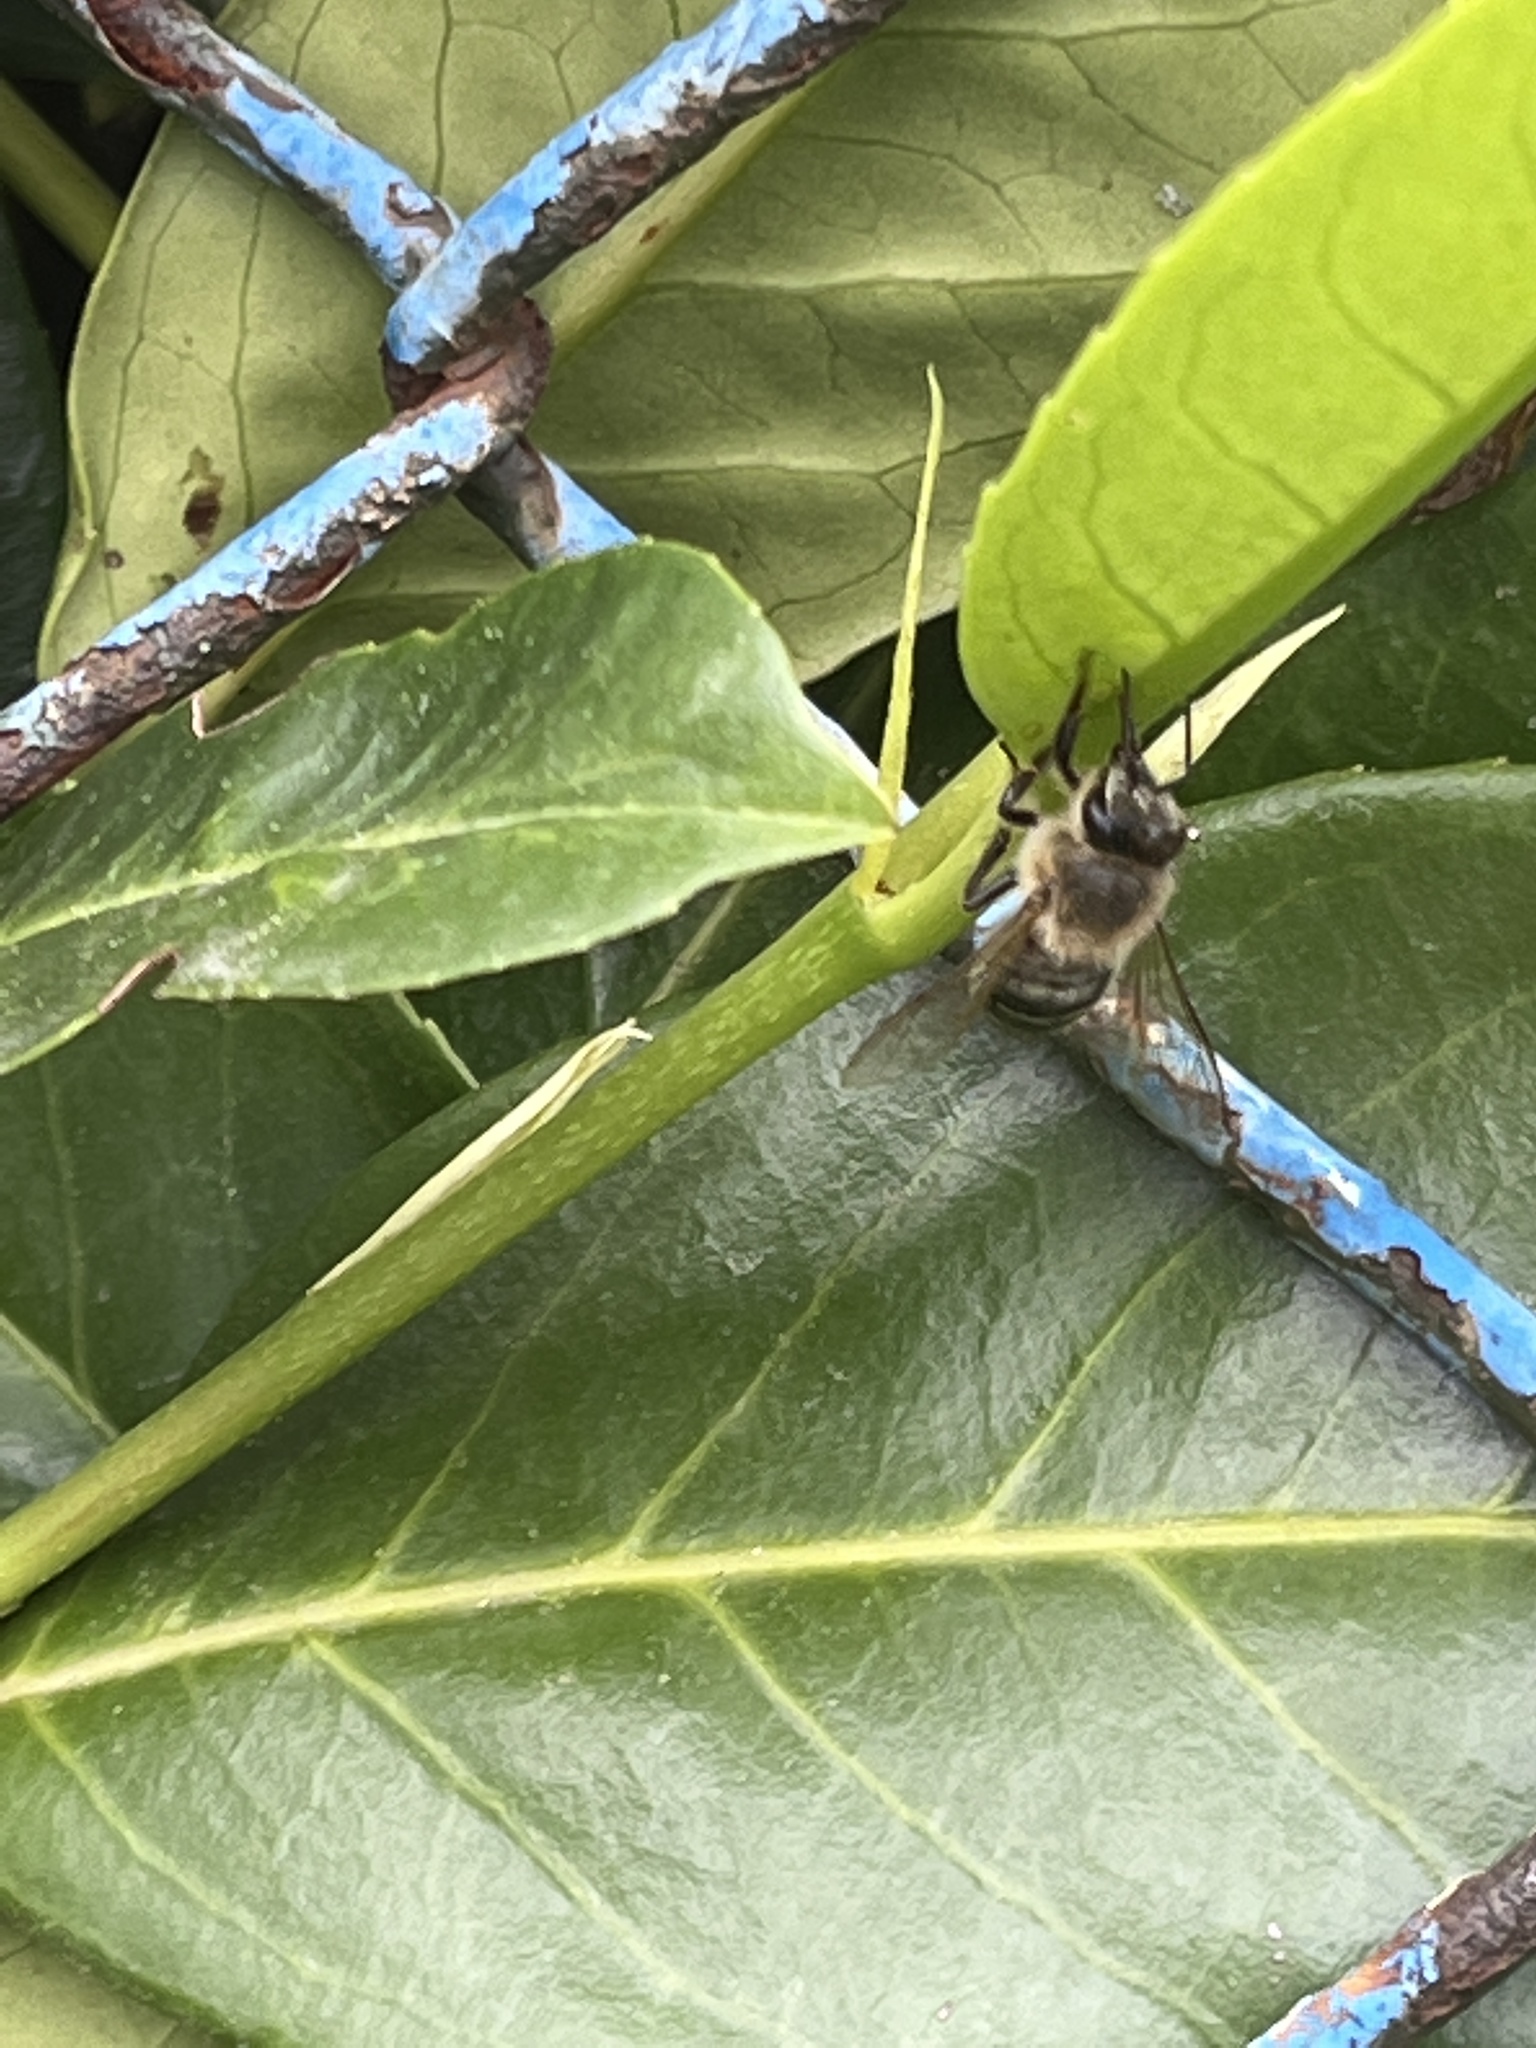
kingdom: Animalia
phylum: Arthropoda
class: Insecta
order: Hymenoptera
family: Apidae
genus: Apis
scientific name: Apis mellifera
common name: Honey bee
